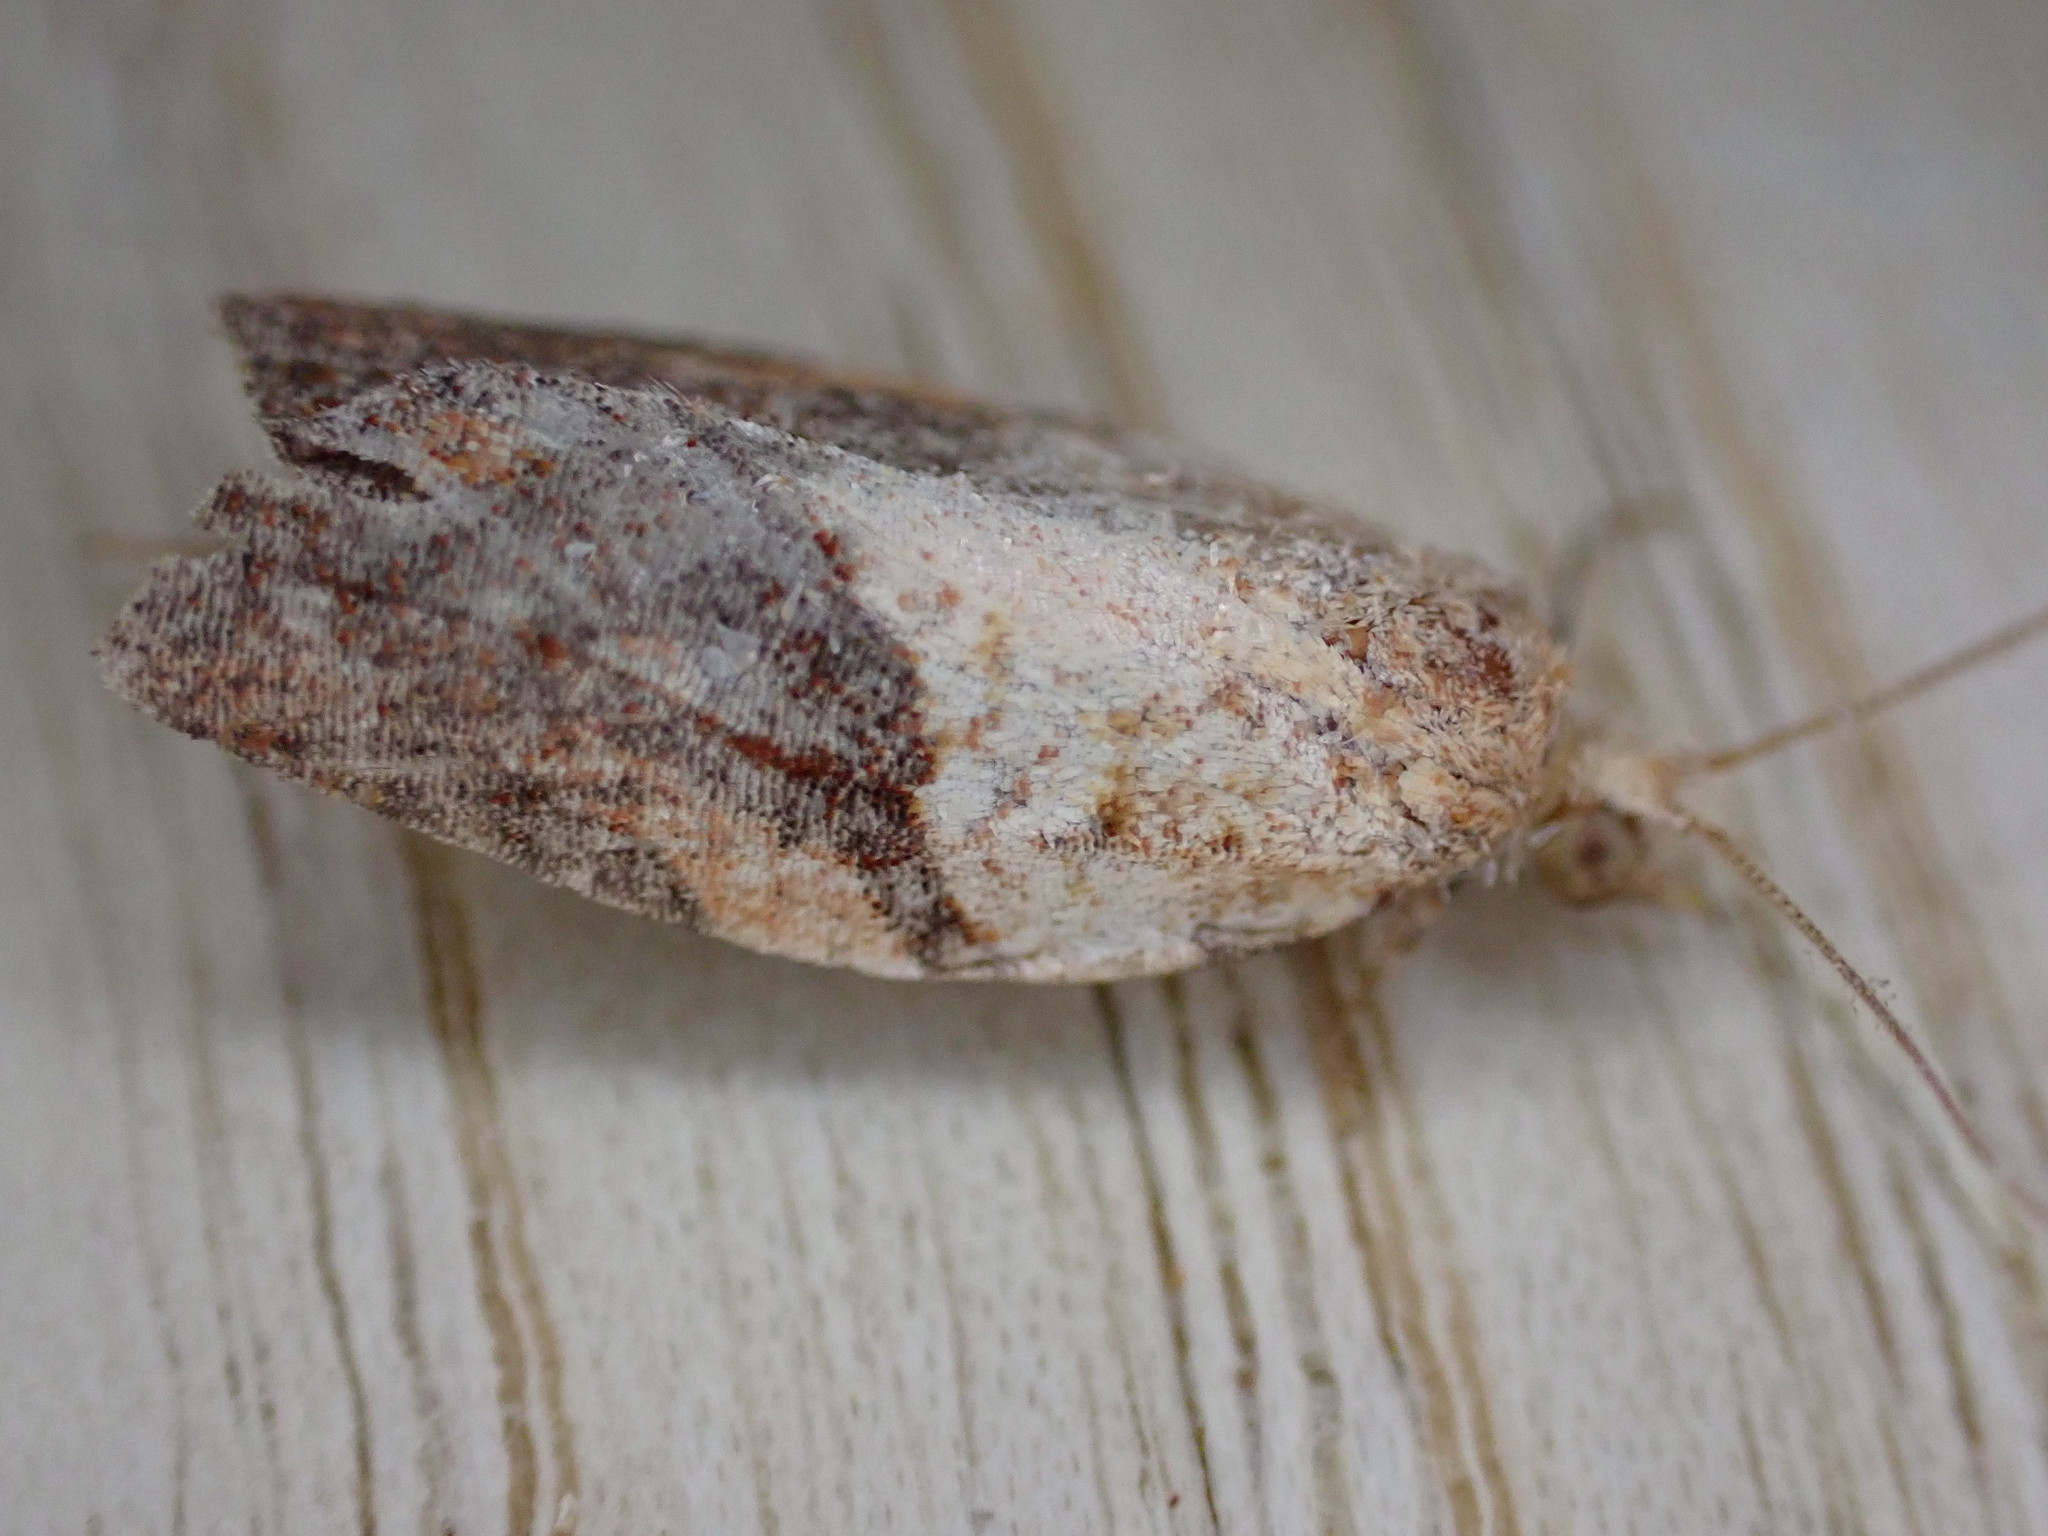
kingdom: Animalia
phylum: Arthropoda
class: Insecta
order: Lepidoptera
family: Tortricidae
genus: Epiphyas
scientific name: Epiphyas postvittana
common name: Light brown apple moth
